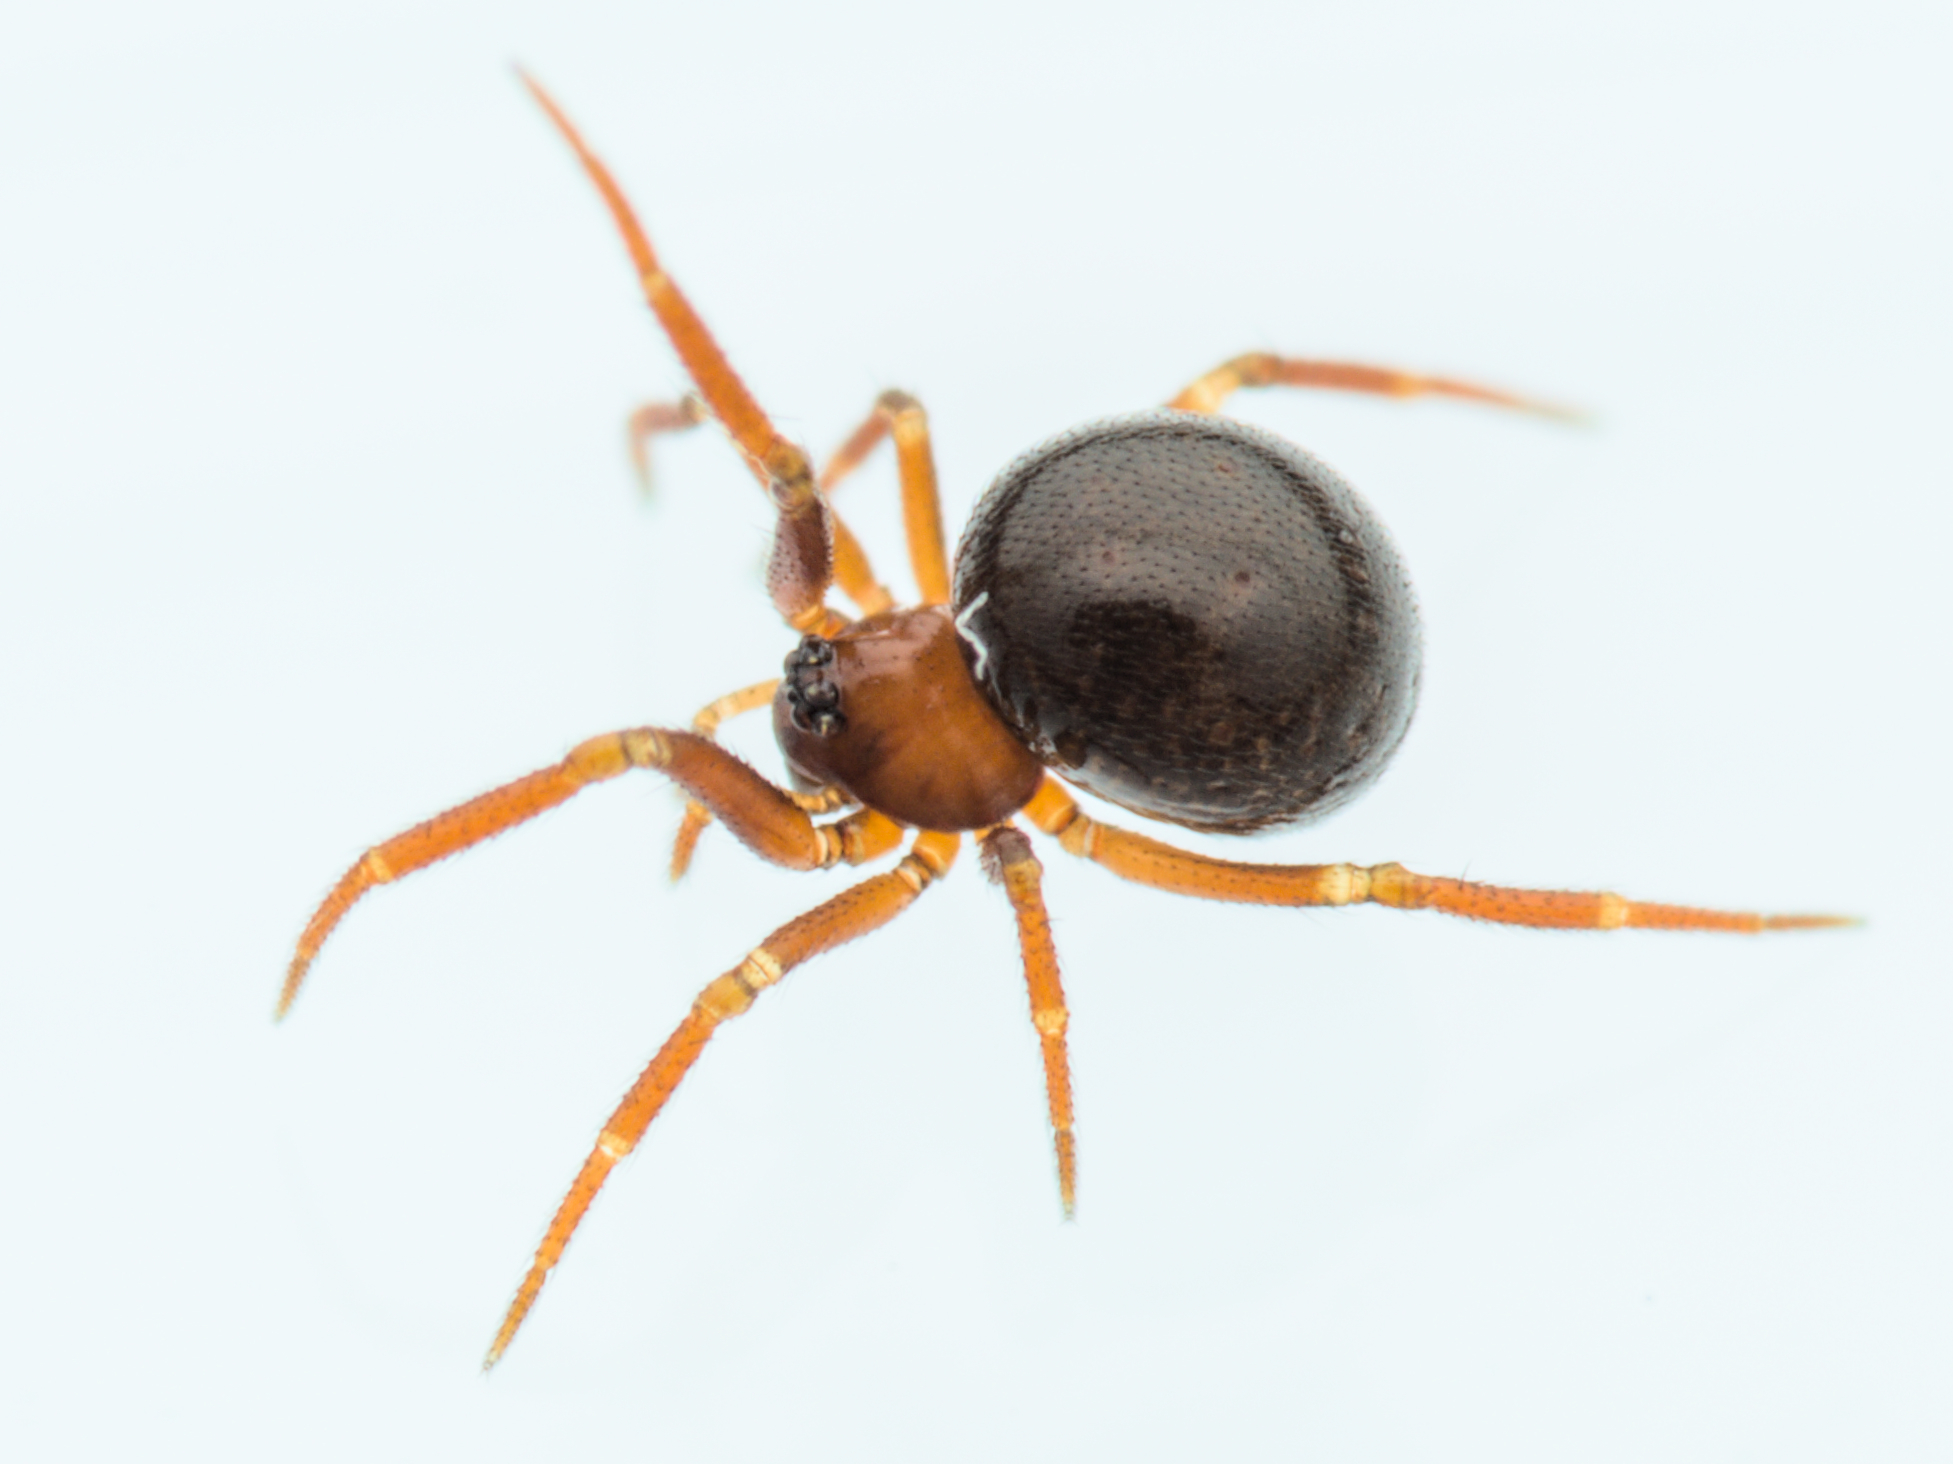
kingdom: Animalia
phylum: Arthropoda
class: Arachnida
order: Araneae
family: Theridiidae
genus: Pholcomma
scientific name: Pholcomma gibbum
